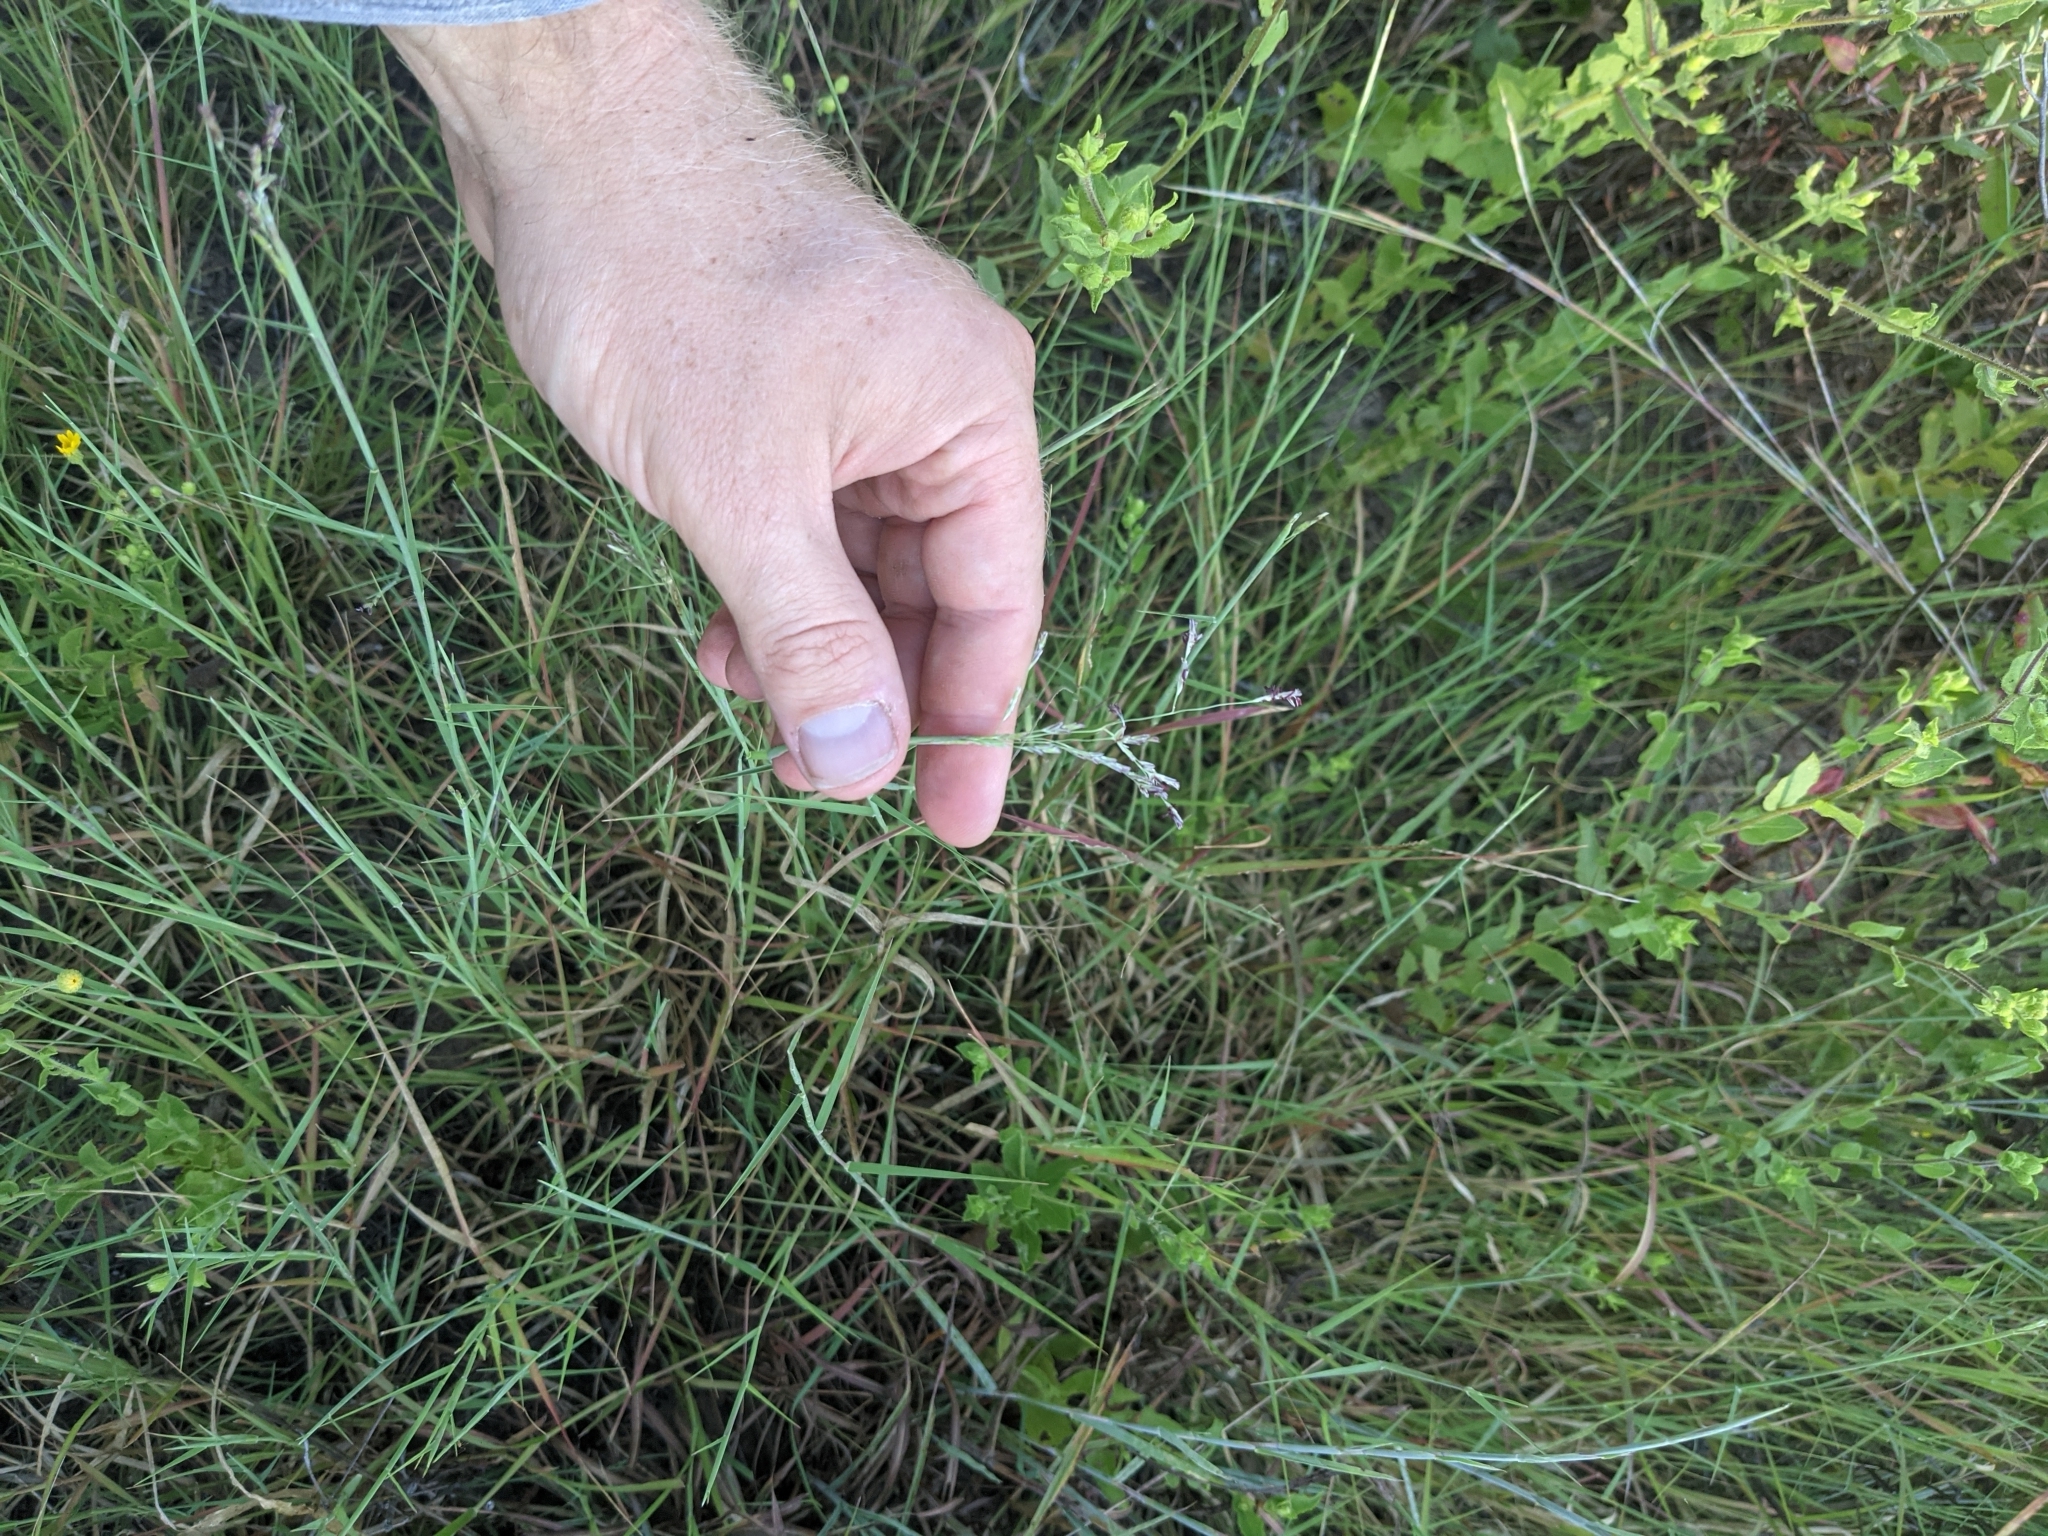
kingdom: Plantae
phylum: Tracheophyta
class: Liliopsida
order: Poales
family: Poaceae
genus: Triplasis
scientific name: Triplasis purpurea
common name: Purple sand grass
